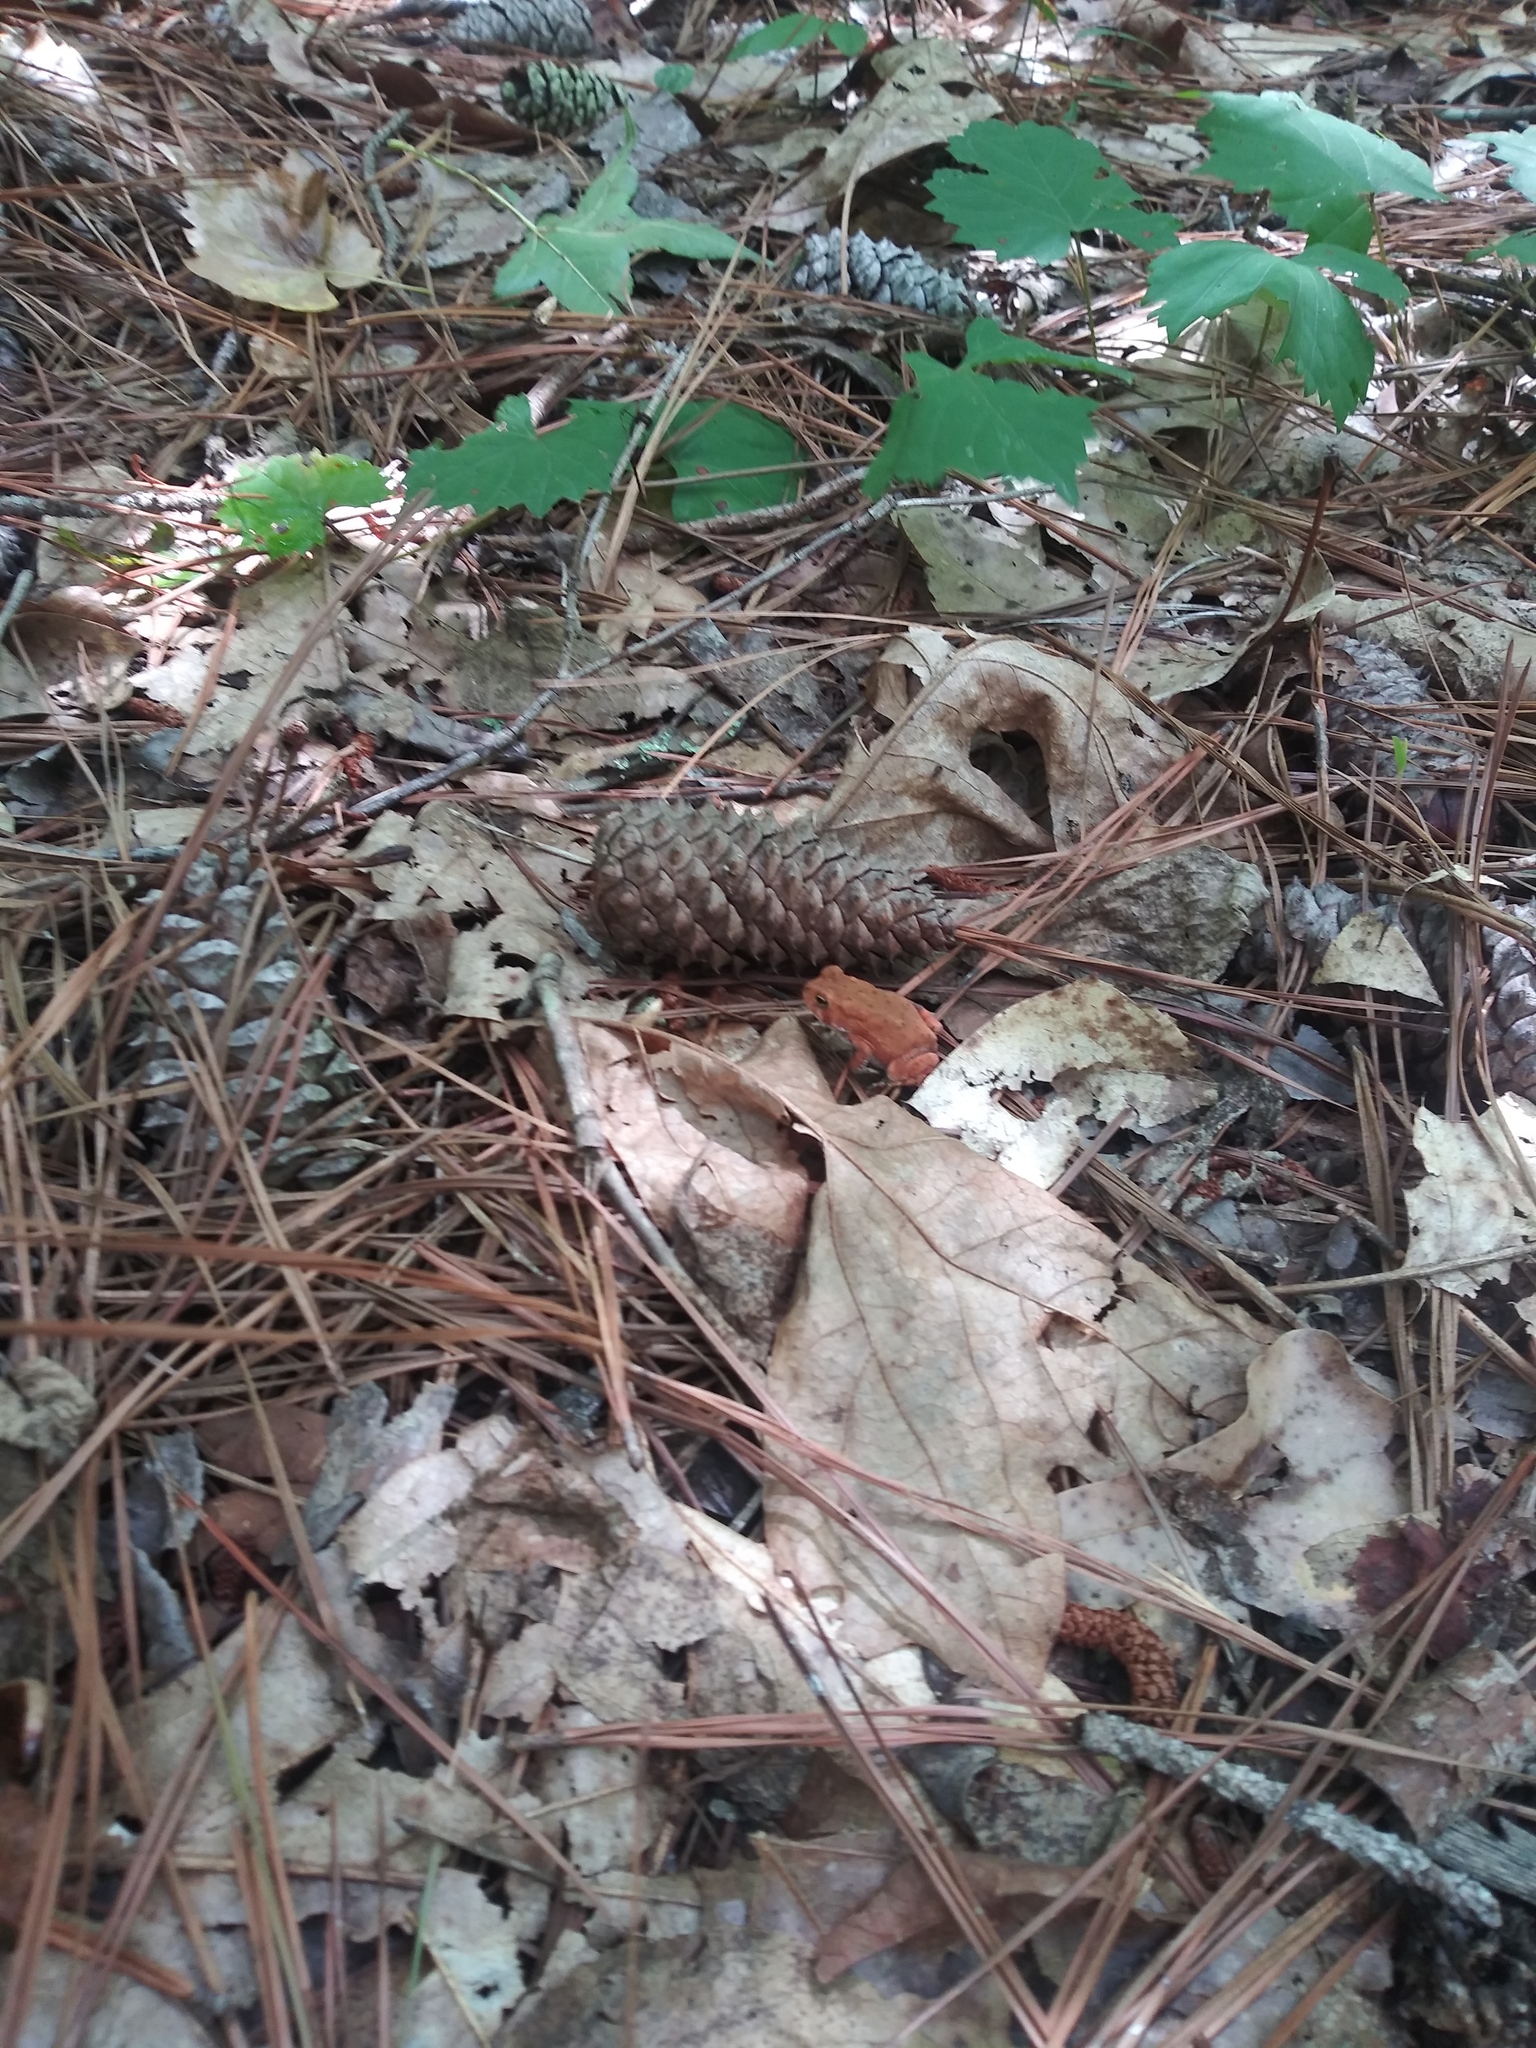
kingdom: Animalia
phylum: Chordata
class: Amphibia
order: Anura
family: Bufonidae
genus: Anaxyrus
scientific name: Anaxyrus americanus
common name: American toad
